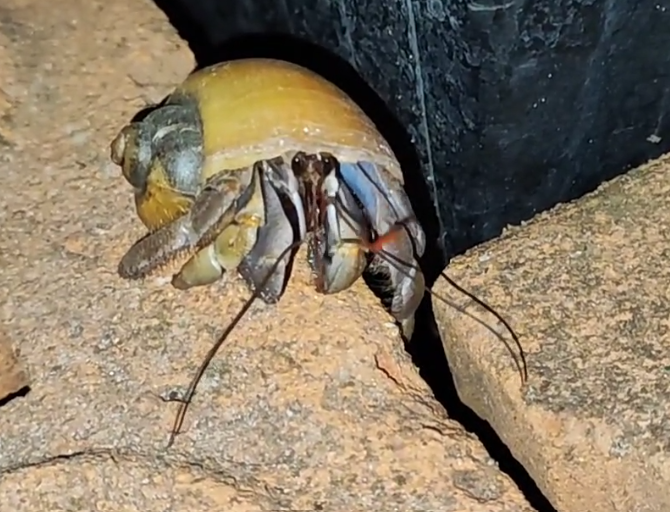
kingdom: Animalia
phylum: Arthropoda
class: Malacostraca
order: Decapoda
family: Coenobitidae
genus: Coenobita
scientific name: Coenobita violascens
